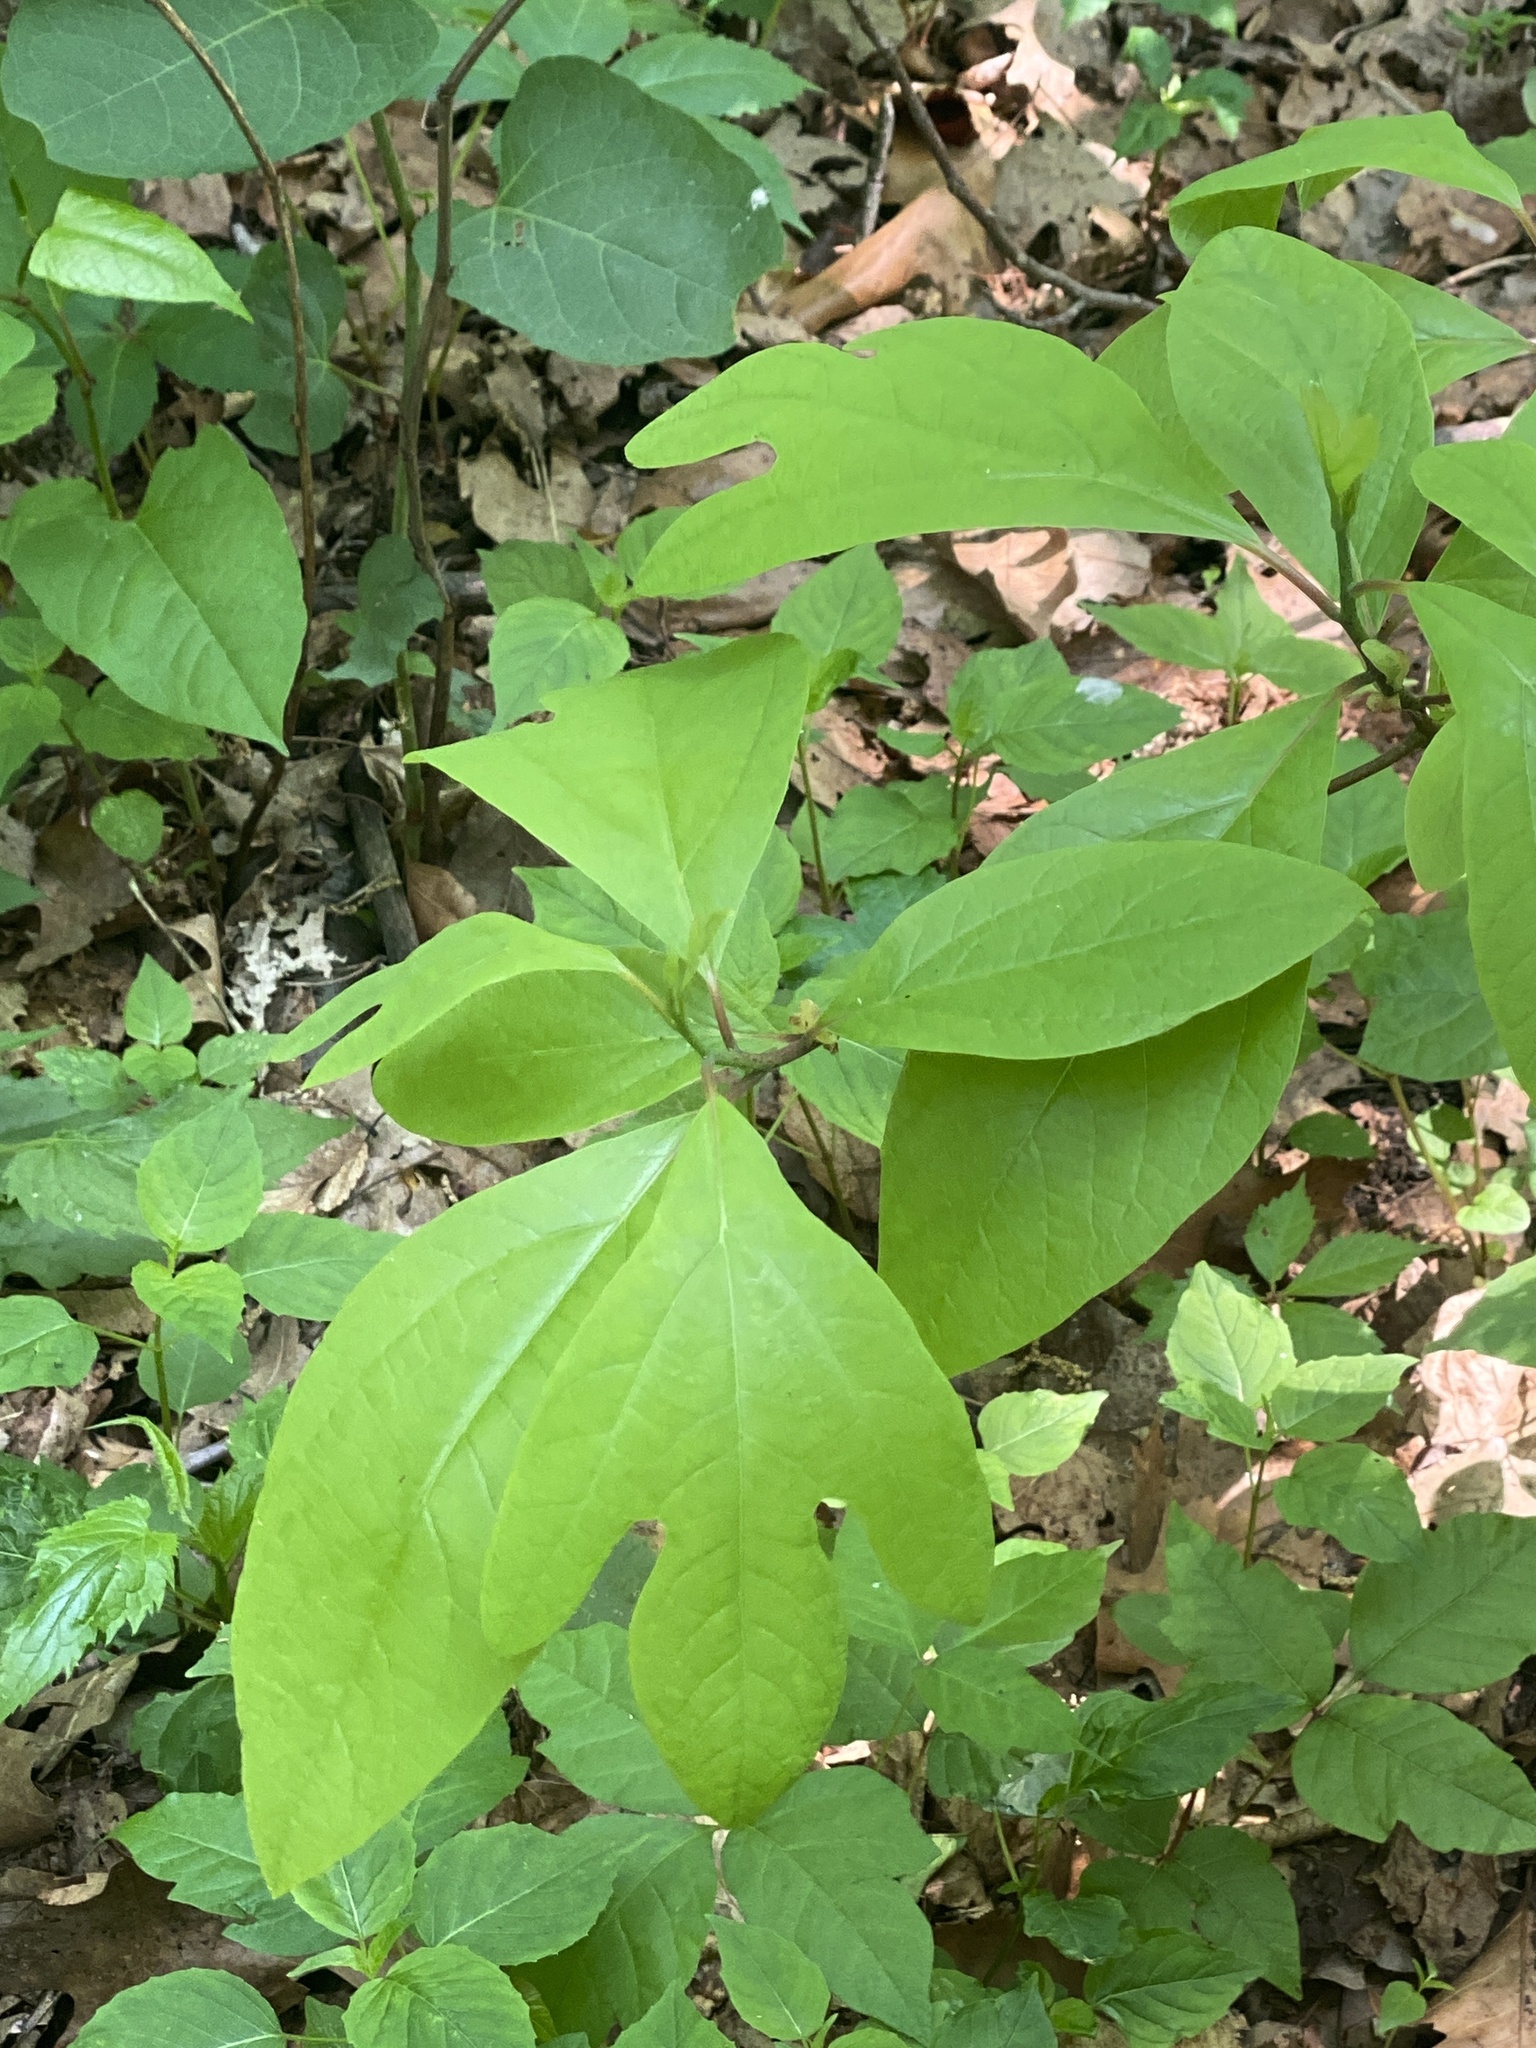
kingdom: Plantae
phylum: Tracheophyta
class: Magnoliopsida
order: Laurales
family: Lauraceae
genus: Sassafras
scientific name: Sassafras albidum
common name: Sassafras
